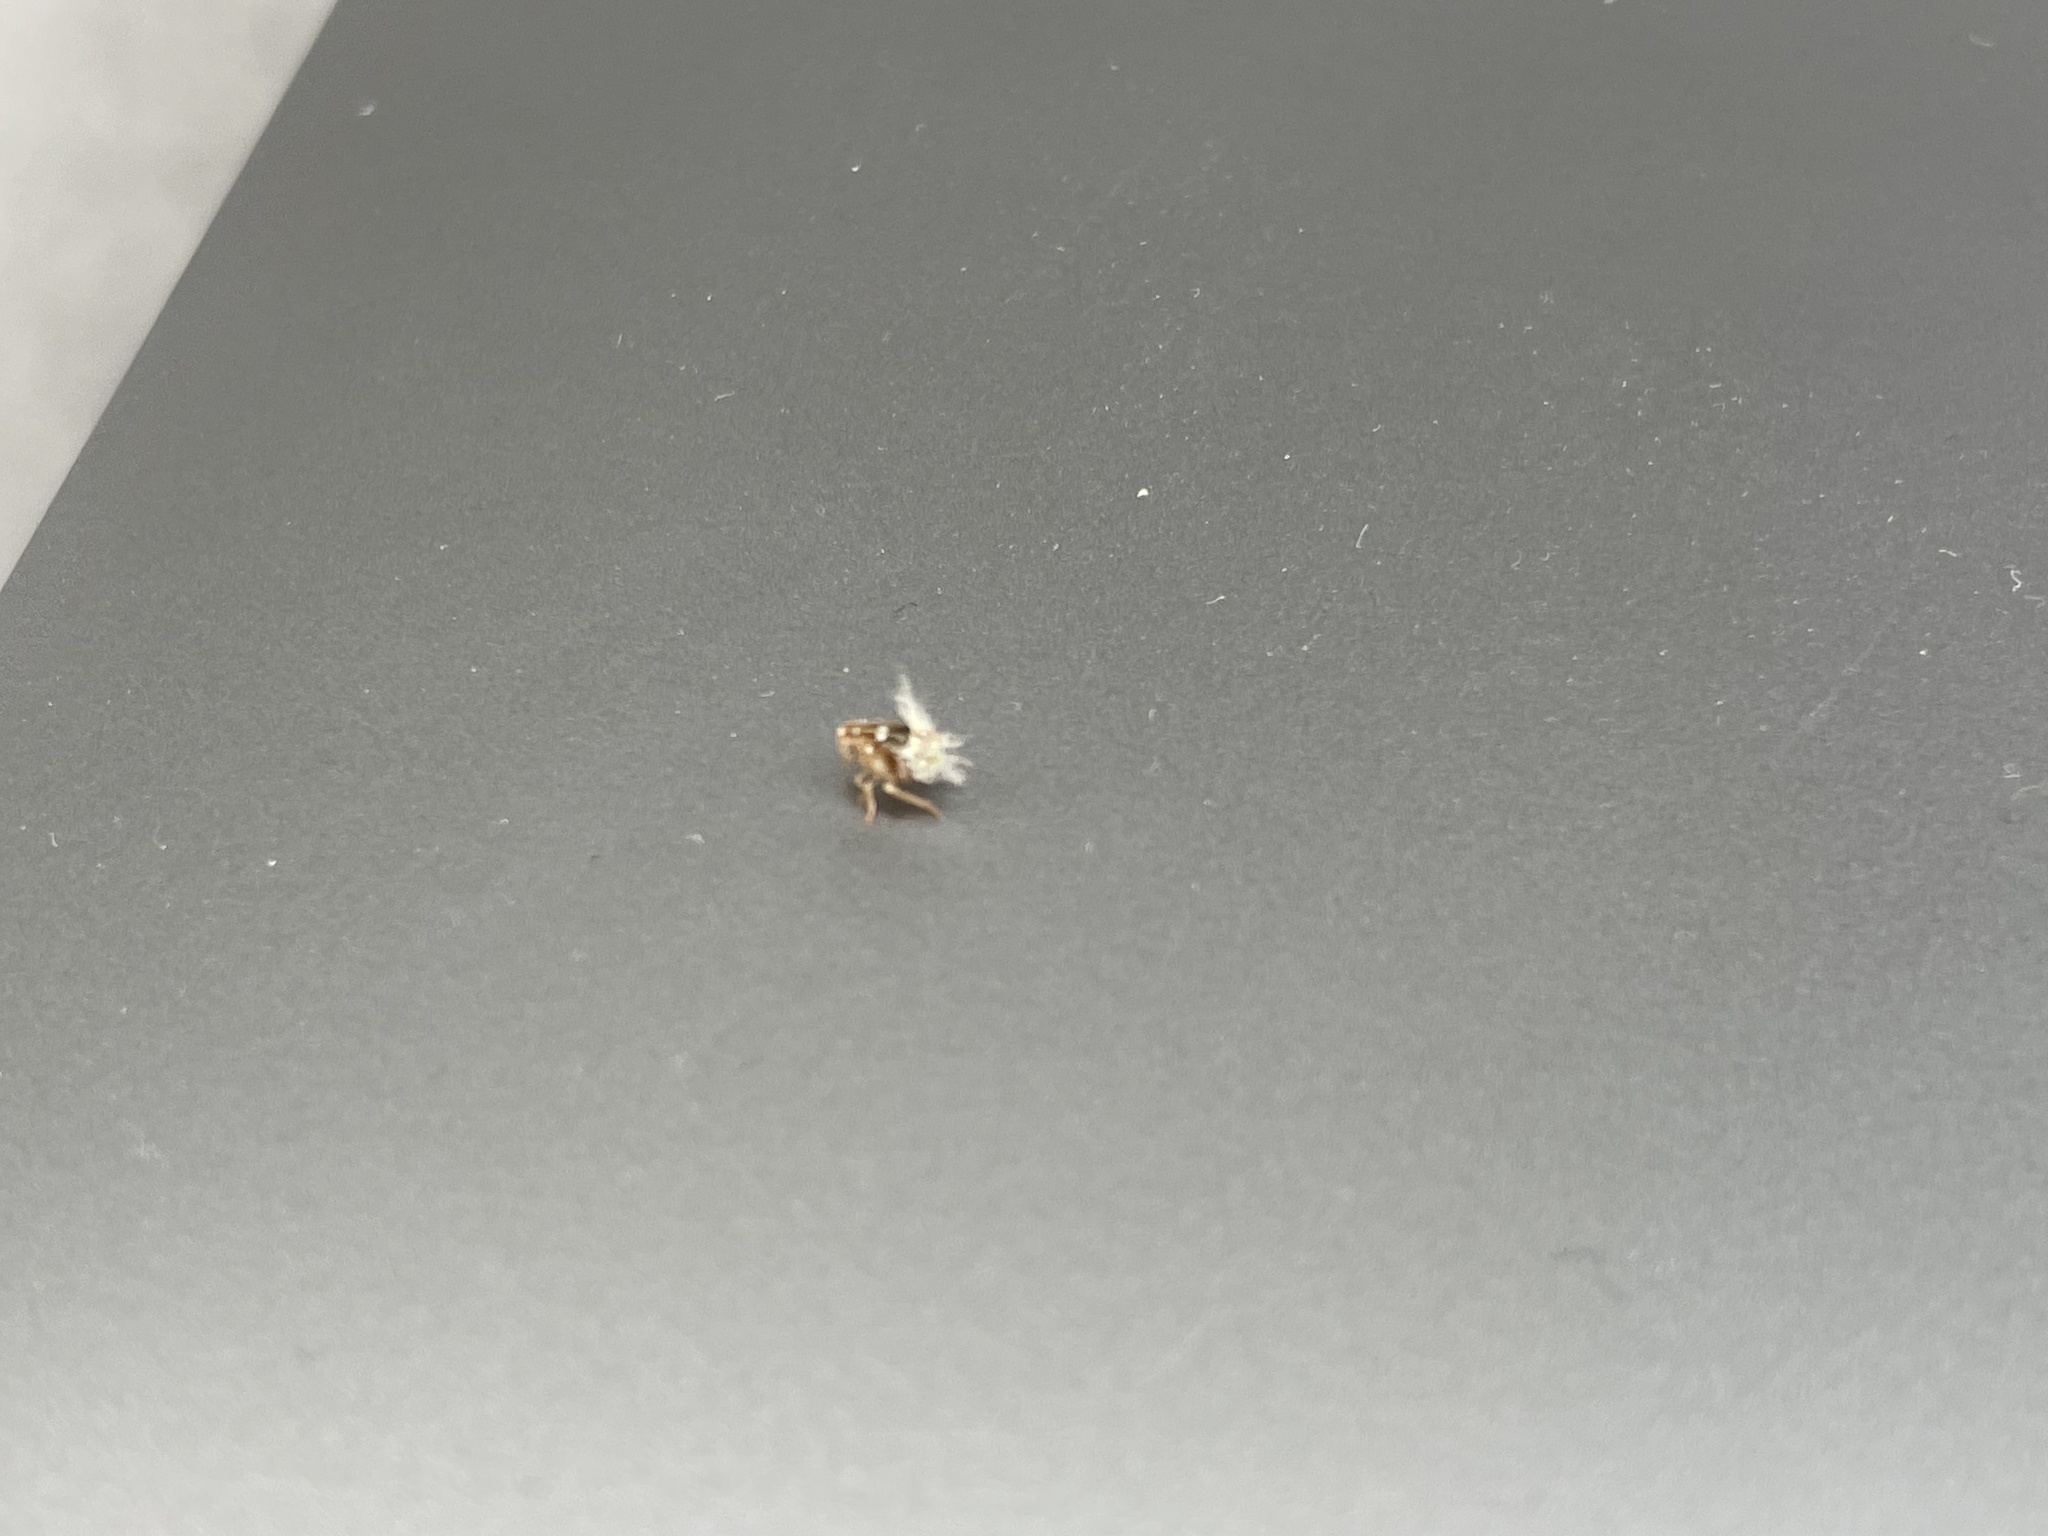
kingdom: Animalia
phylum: Arthropoda
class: Insecta
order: Hemiptera
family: Ricaniidae
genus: Scolypopa
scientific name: Scolypopa australis
